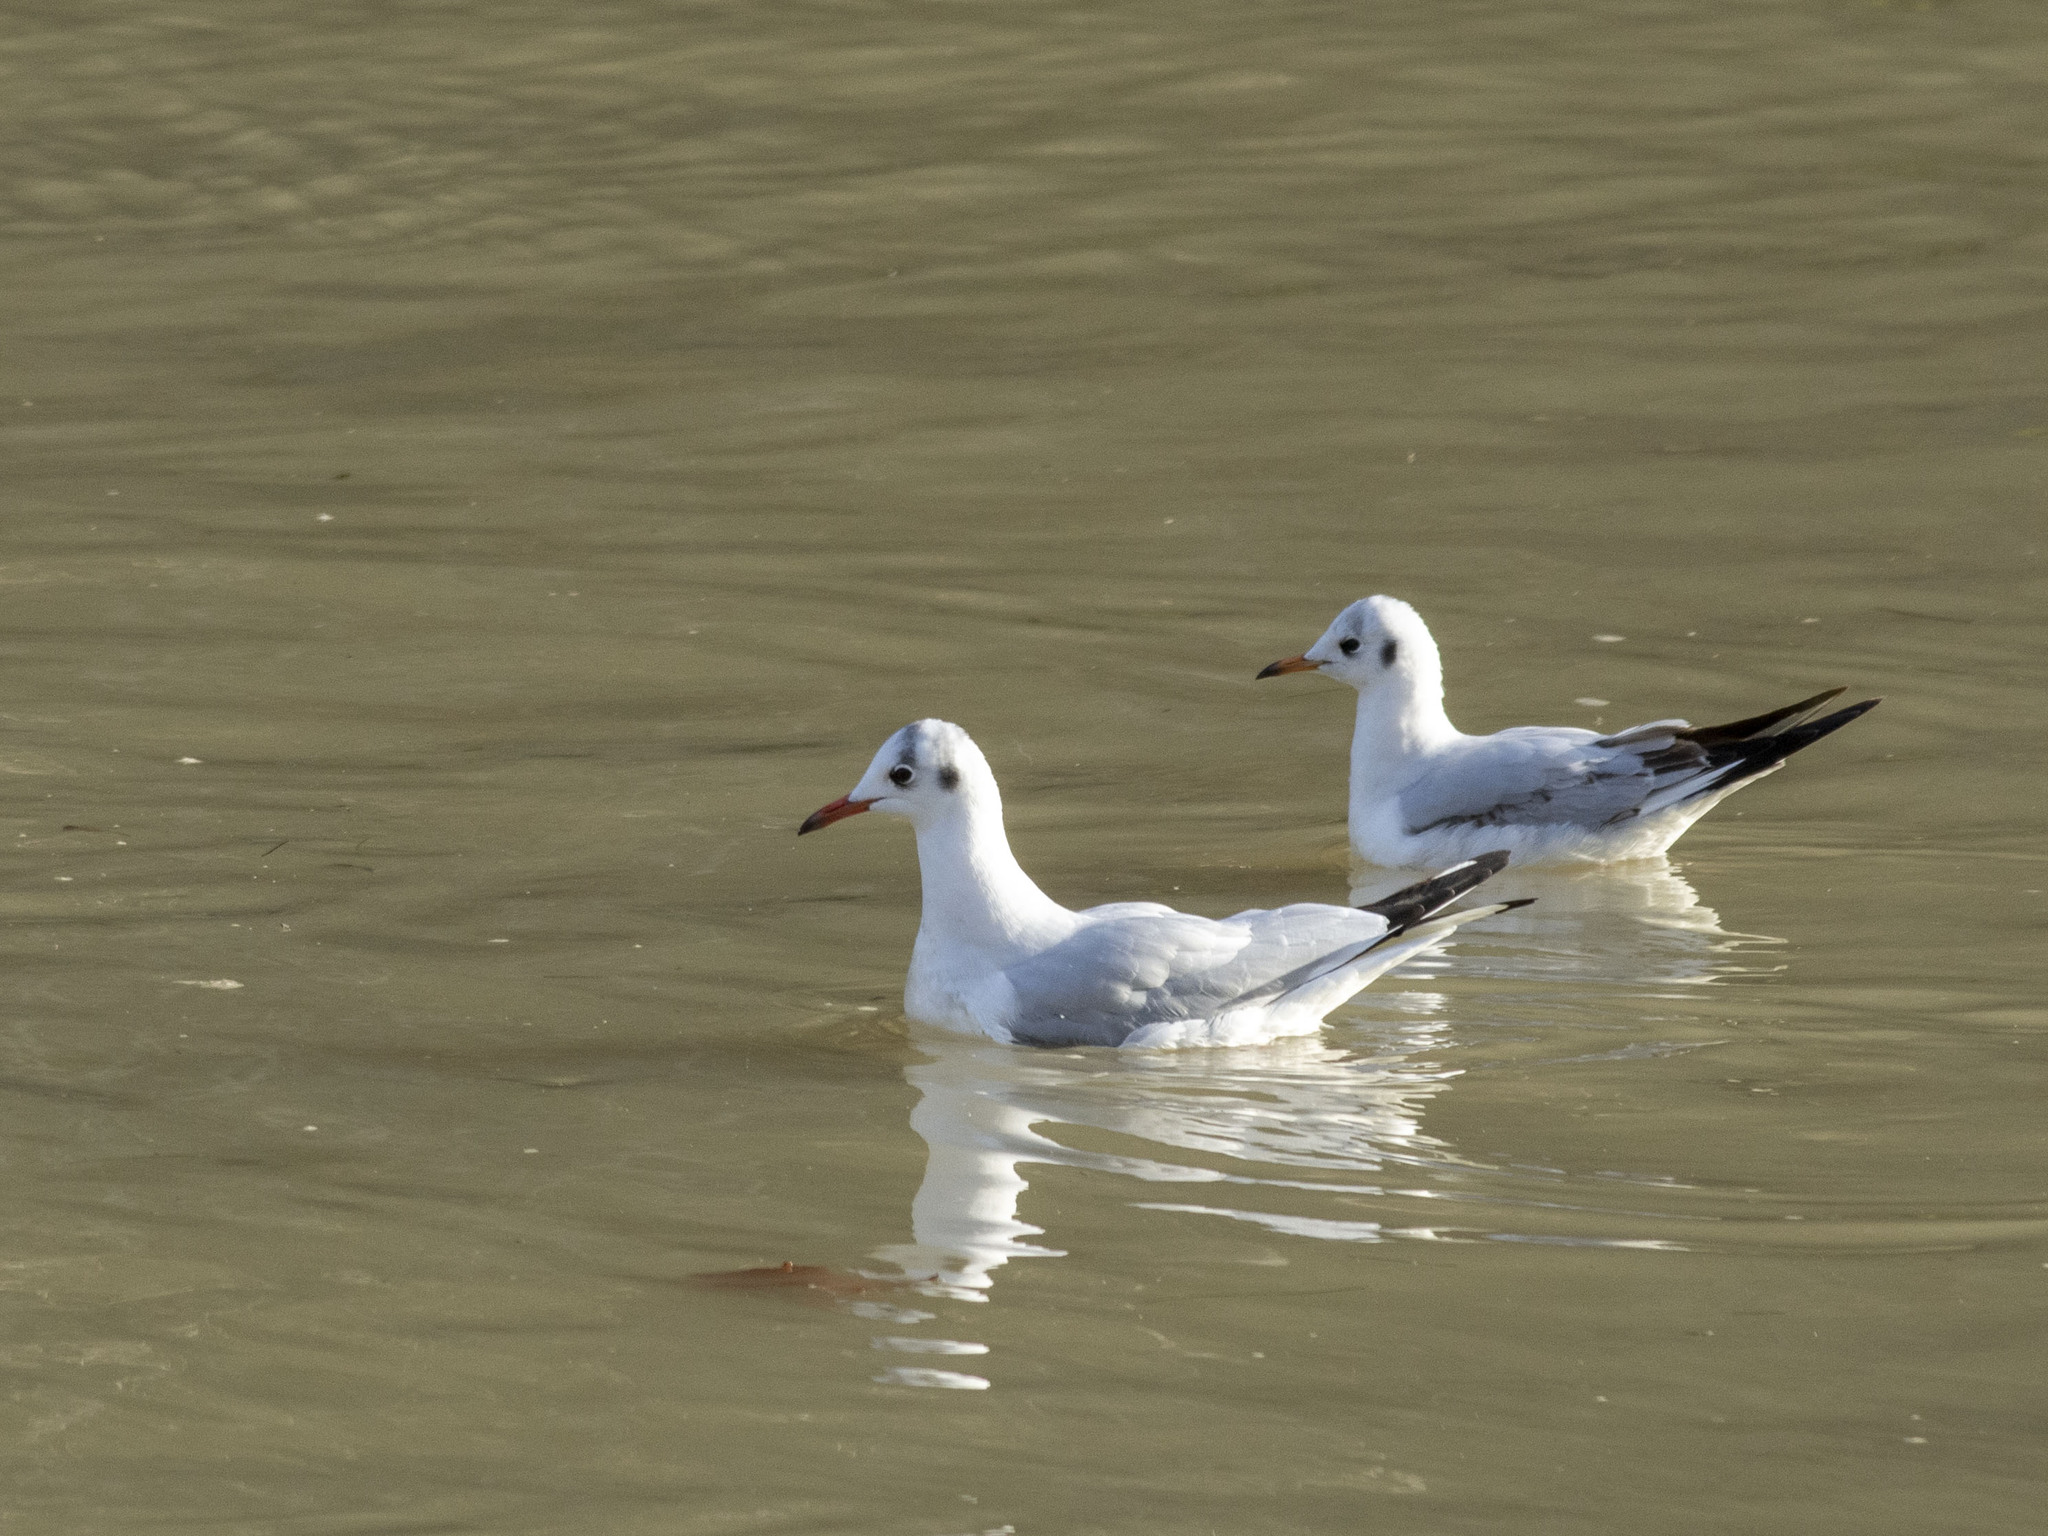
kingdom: Animalia
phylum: Chordata
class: Aves
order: Charadriiformes
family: Laridae
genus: Chroicocephalus
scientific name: Chroicocephalus ridibundus
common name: Black-headed gull
